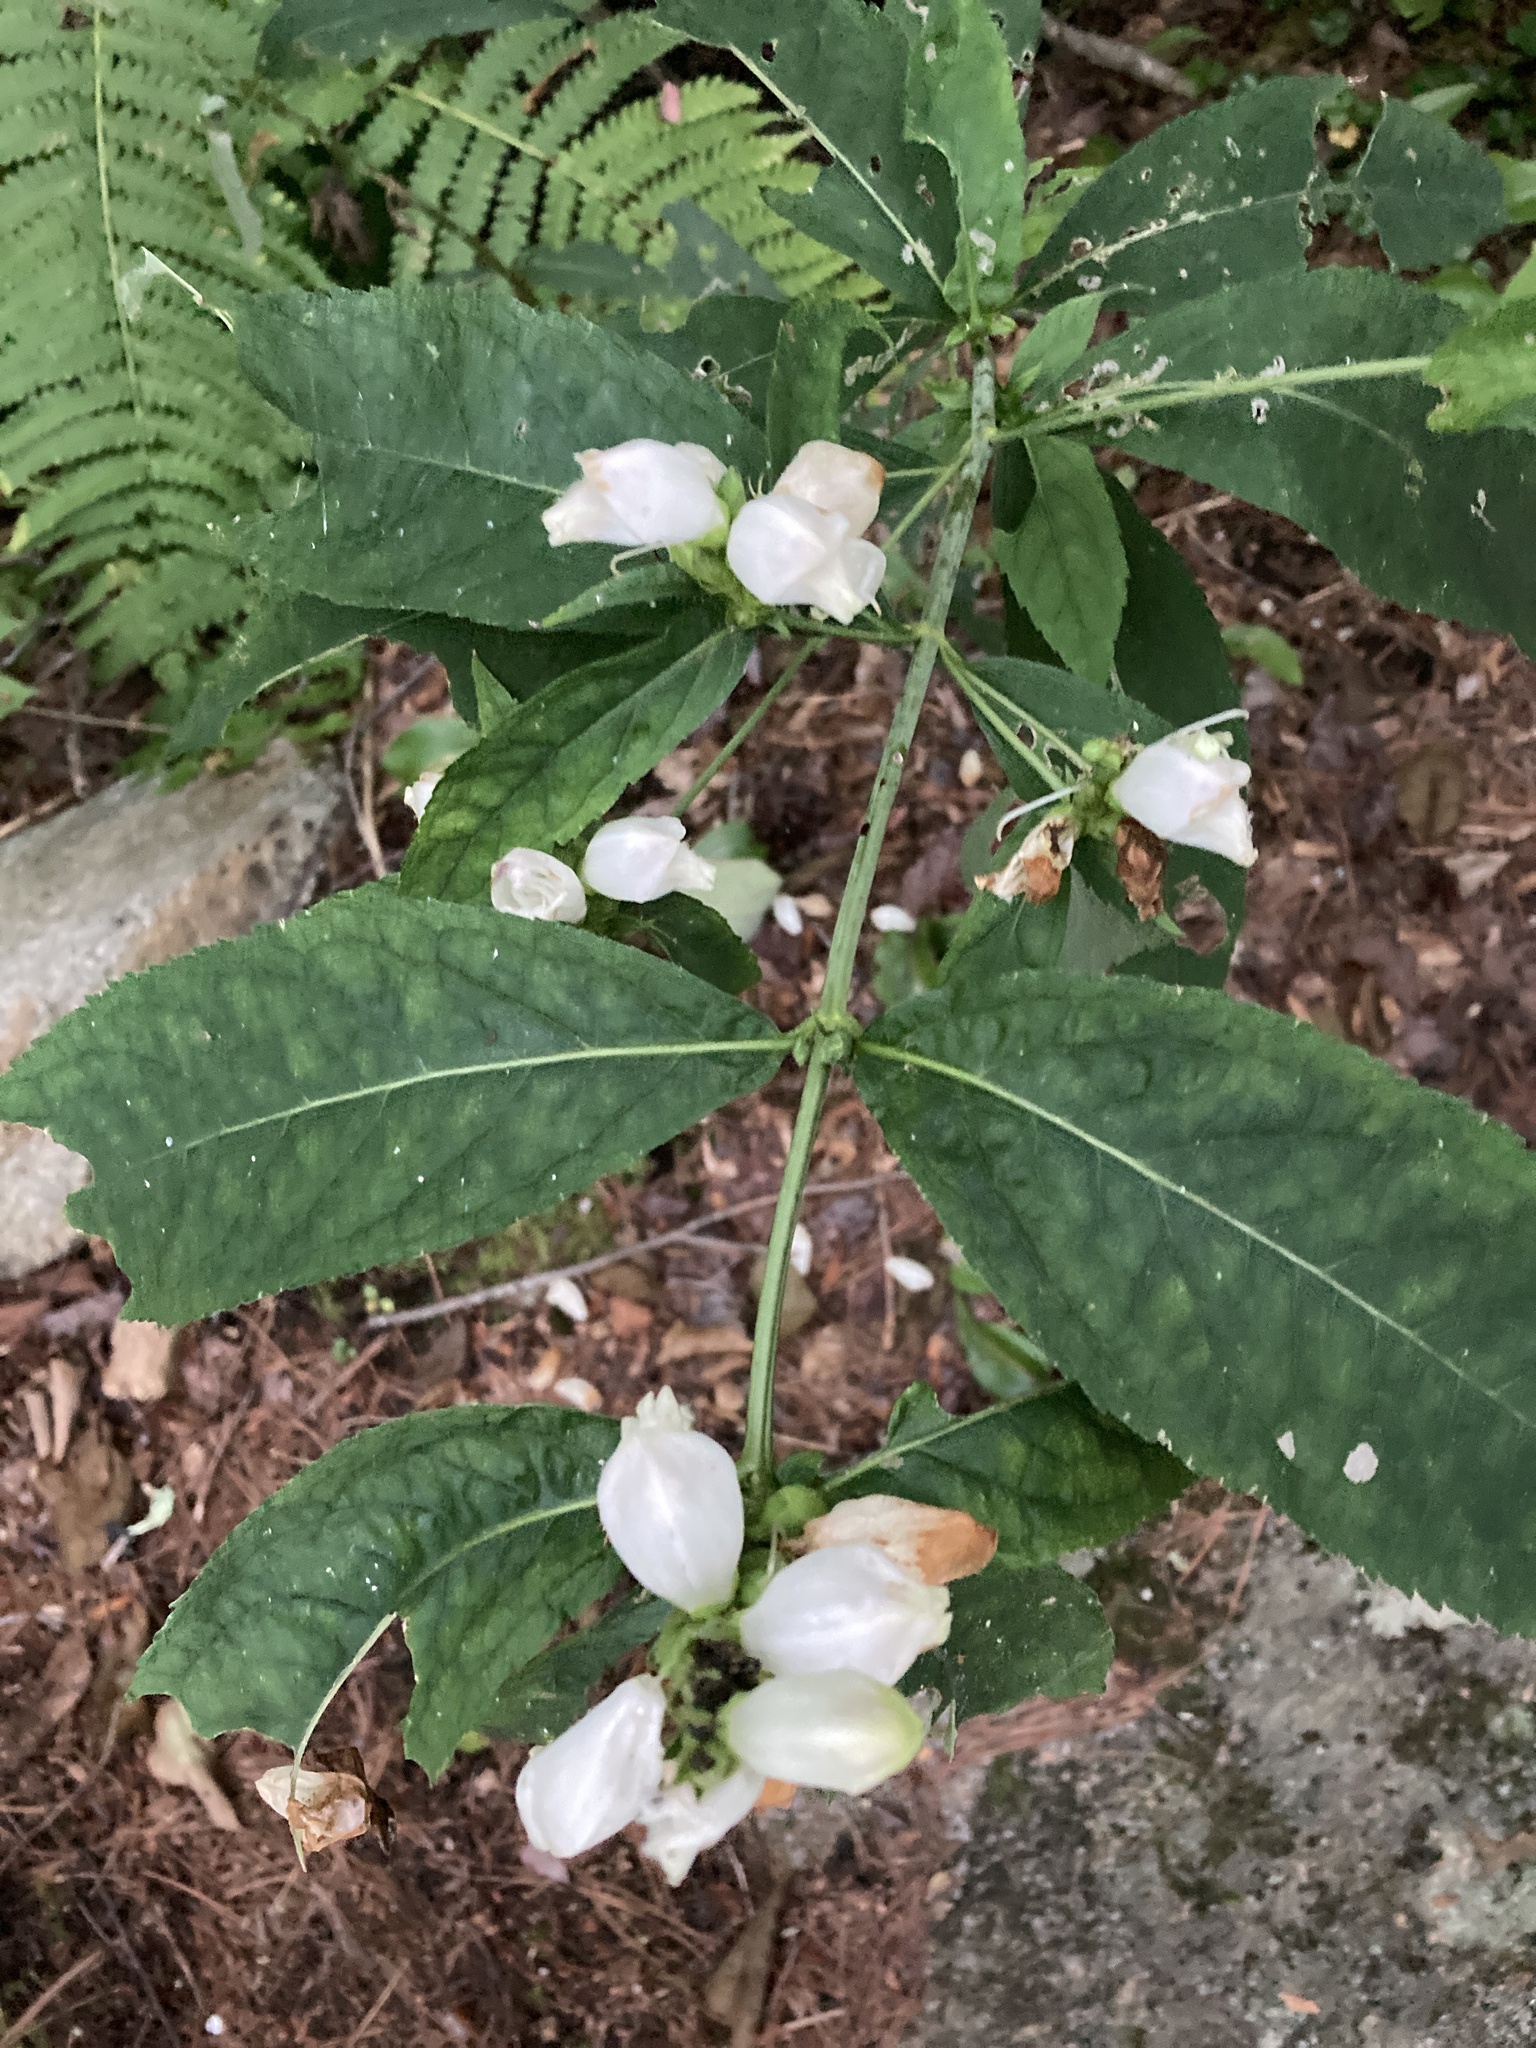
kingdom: Plantae
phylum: Tracheophyta
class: Magnoliopsida
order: Lamiales
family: Plantaginaceae
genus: Chelone
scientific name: Chelone glabra
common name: Snakehead
